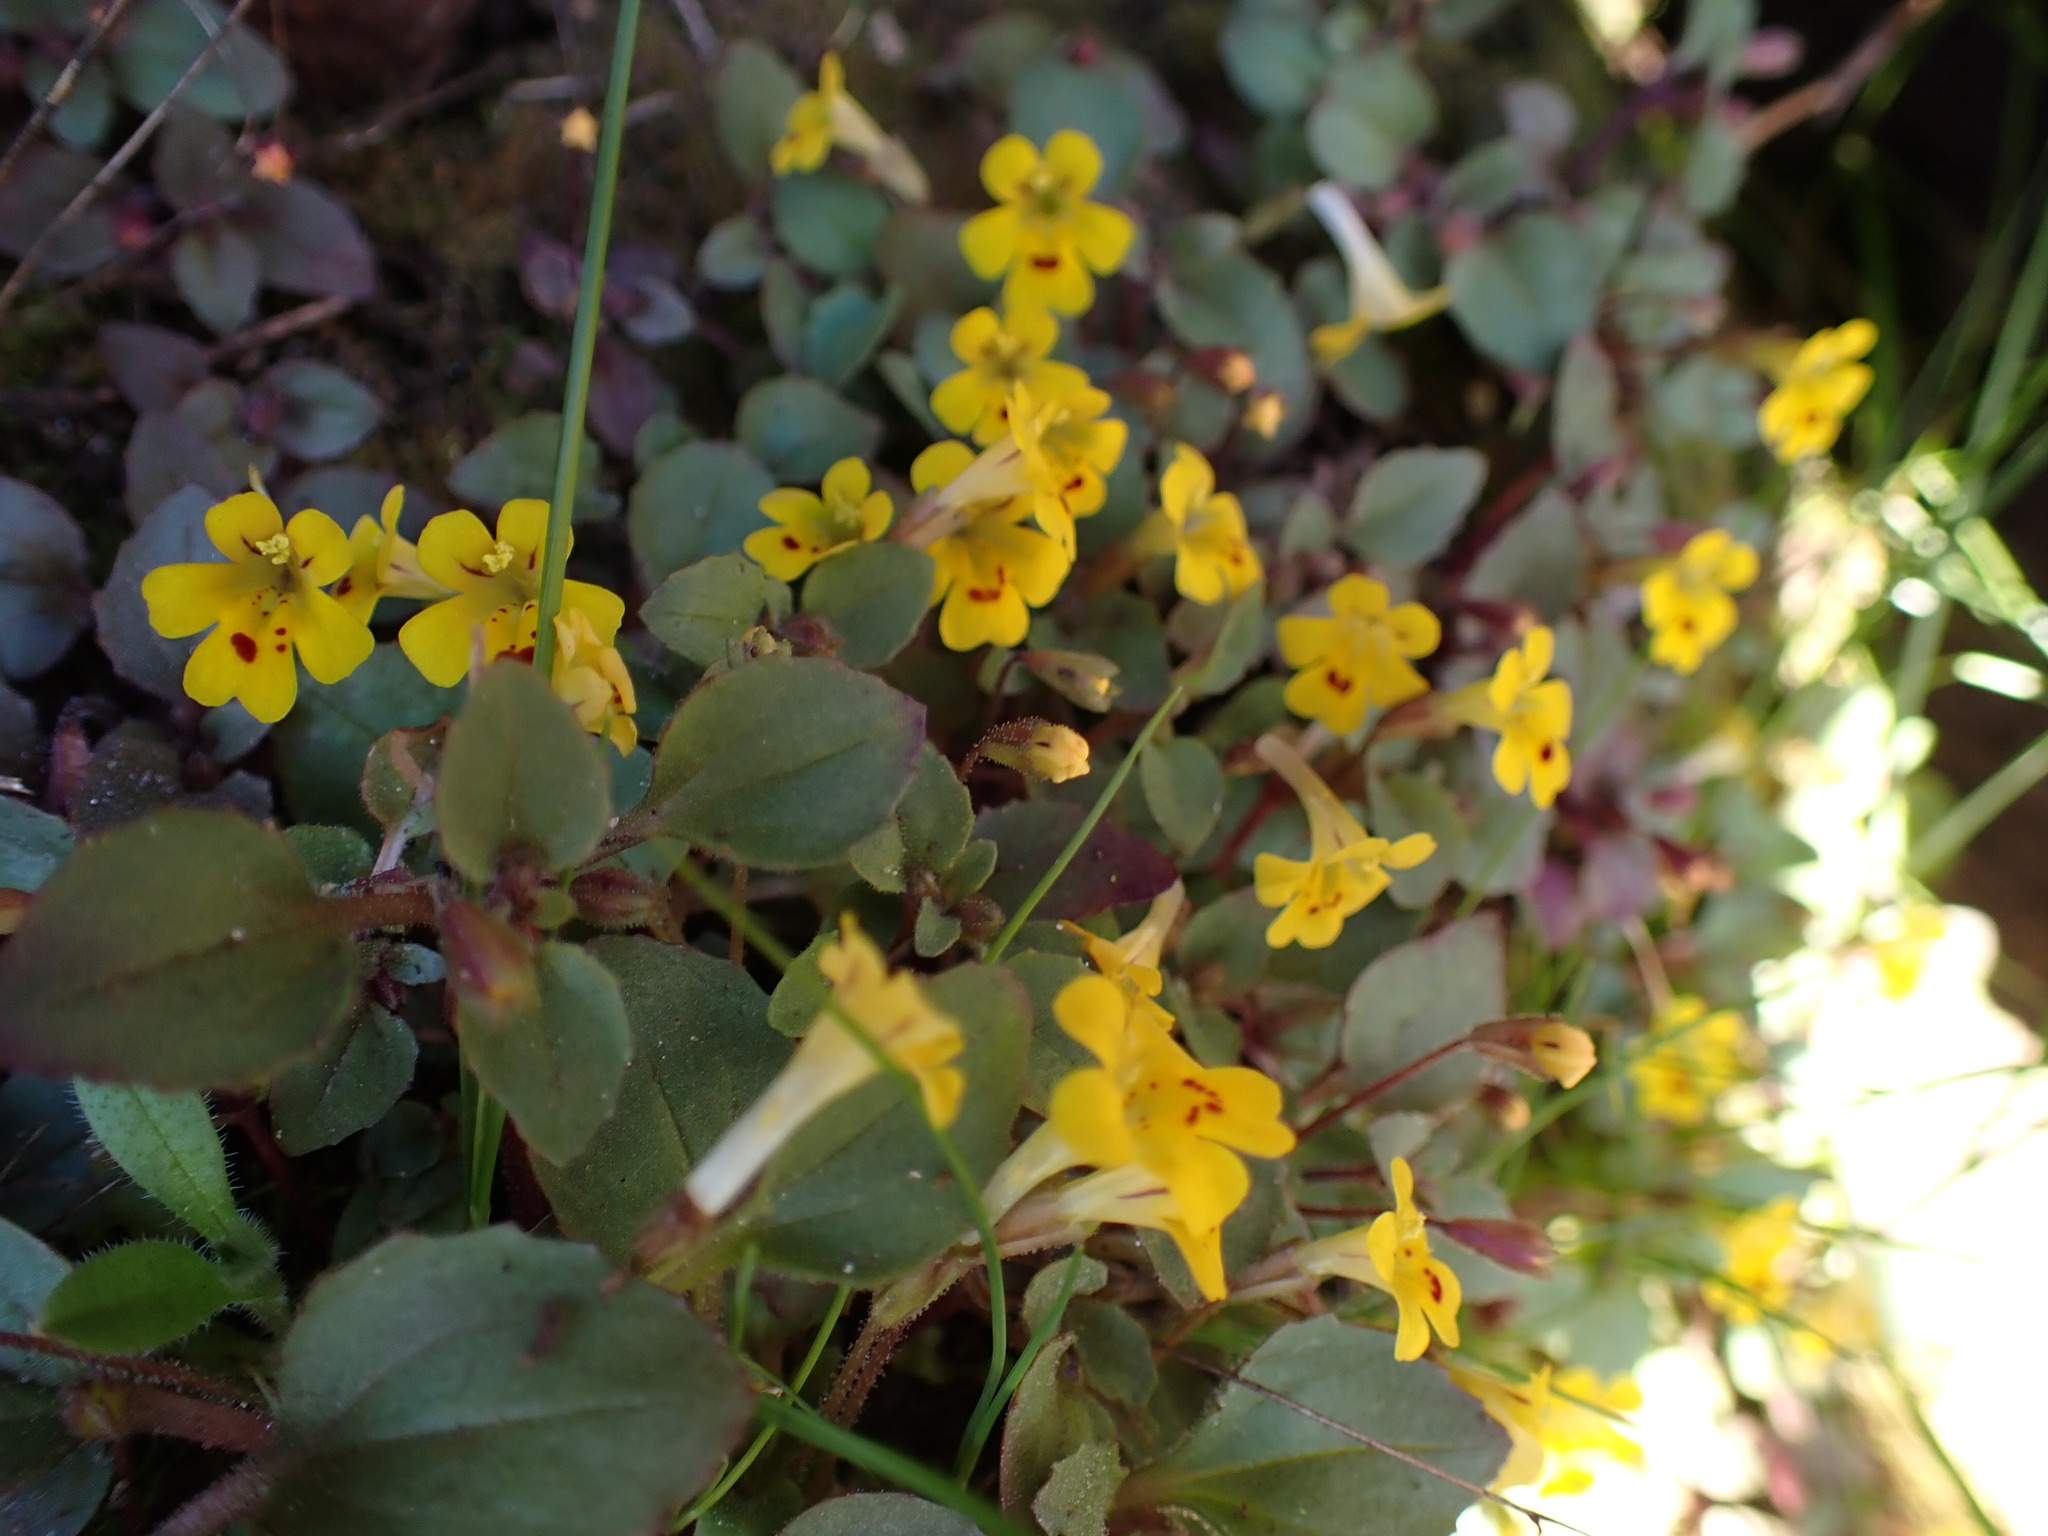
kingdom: Plantae
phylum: Tracheophyta
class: Magnoliopsida
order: Lamiales
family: Phrymaceae
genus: Erythranthe
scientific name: Erythranthe alsinoides
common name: Chickweed monkeyflower
